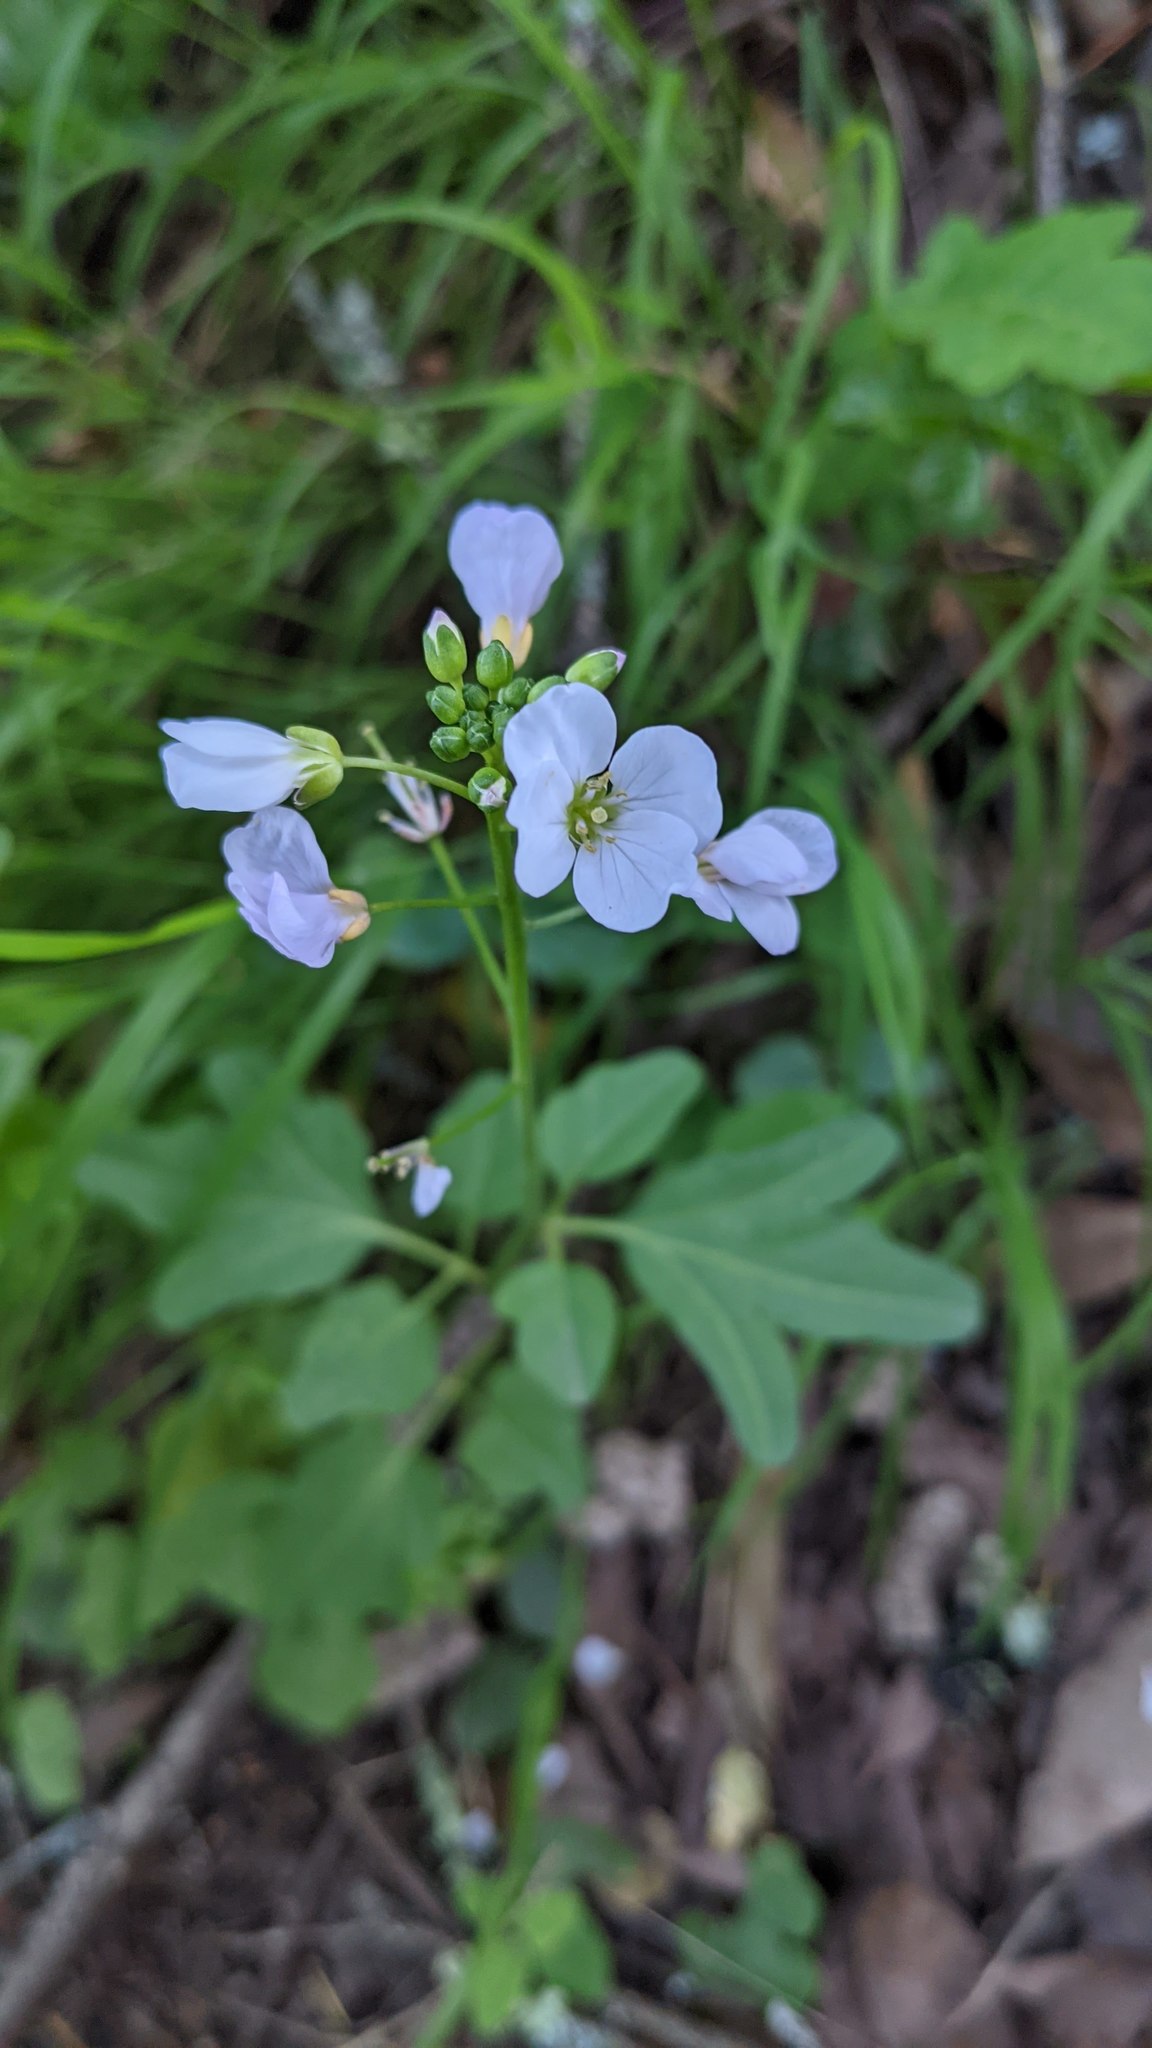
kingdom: Plantae
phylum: Tracheophyta
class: Magnoliopsida
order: Brassicales
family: Brassicaceae
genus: Cardamine
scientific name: Cardamine californica
